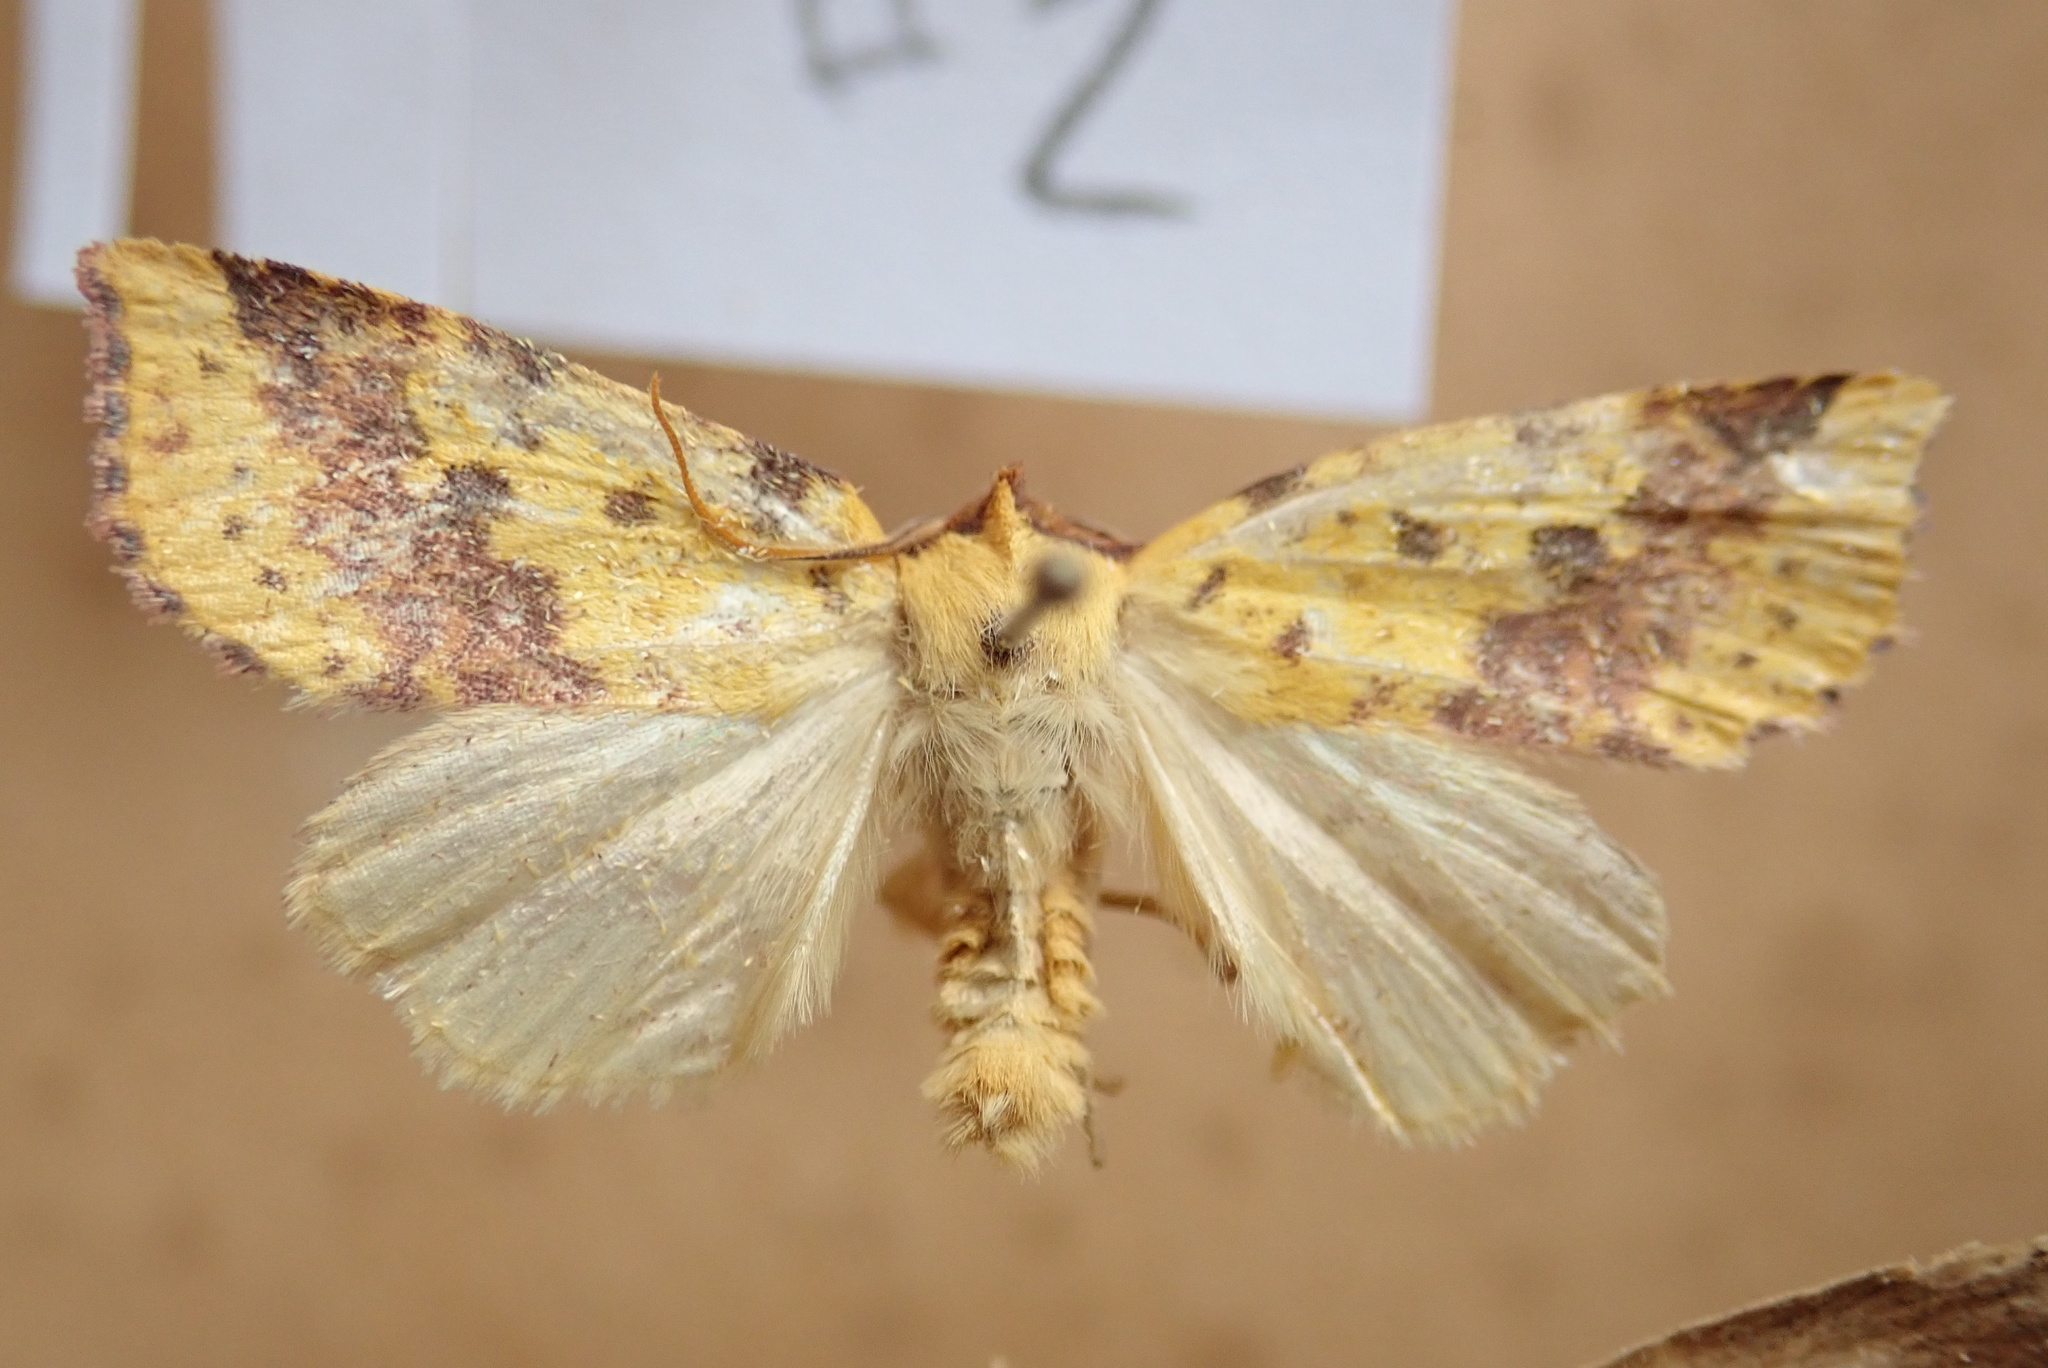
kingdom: Animalia
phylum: Arthropoda
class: Insecta
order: Lepidoptera
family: Noctuidae
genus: Xanthia
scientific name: Xanthia tatago
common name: Pink-banded sallow
